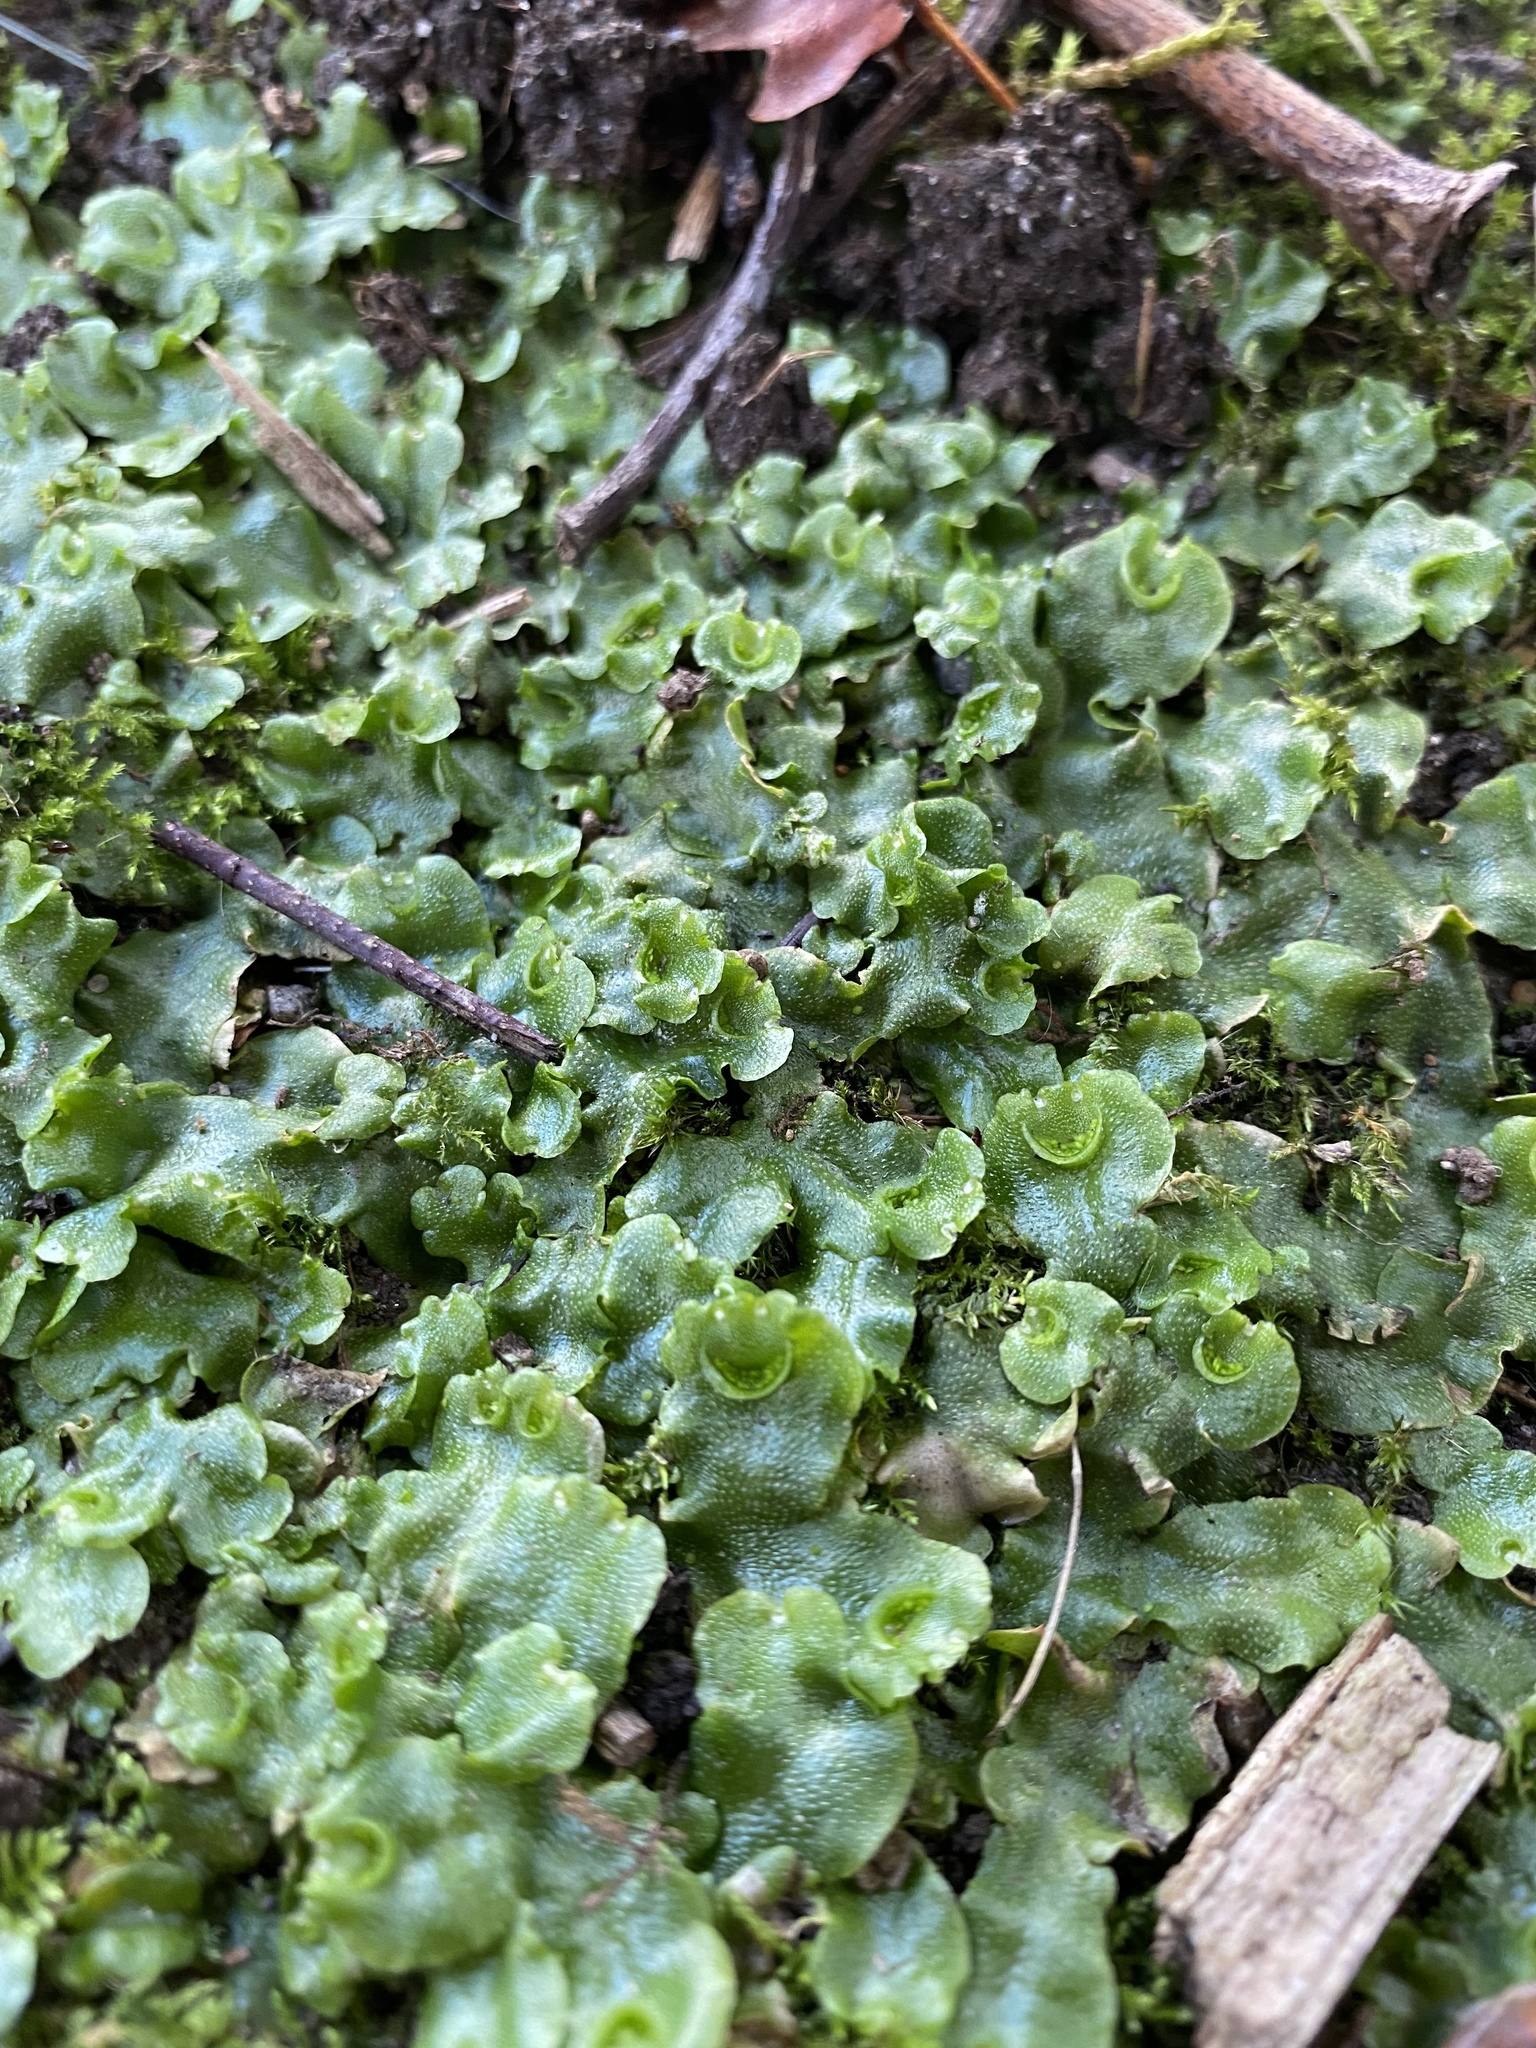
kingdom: Plantae
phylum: Marchantiophyta
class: Marchantiopsida
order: Lunulariales
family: Lunulariaceae
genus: Lunularia
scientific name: Lunularia cruciata
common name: Crescent-cup liverwort
